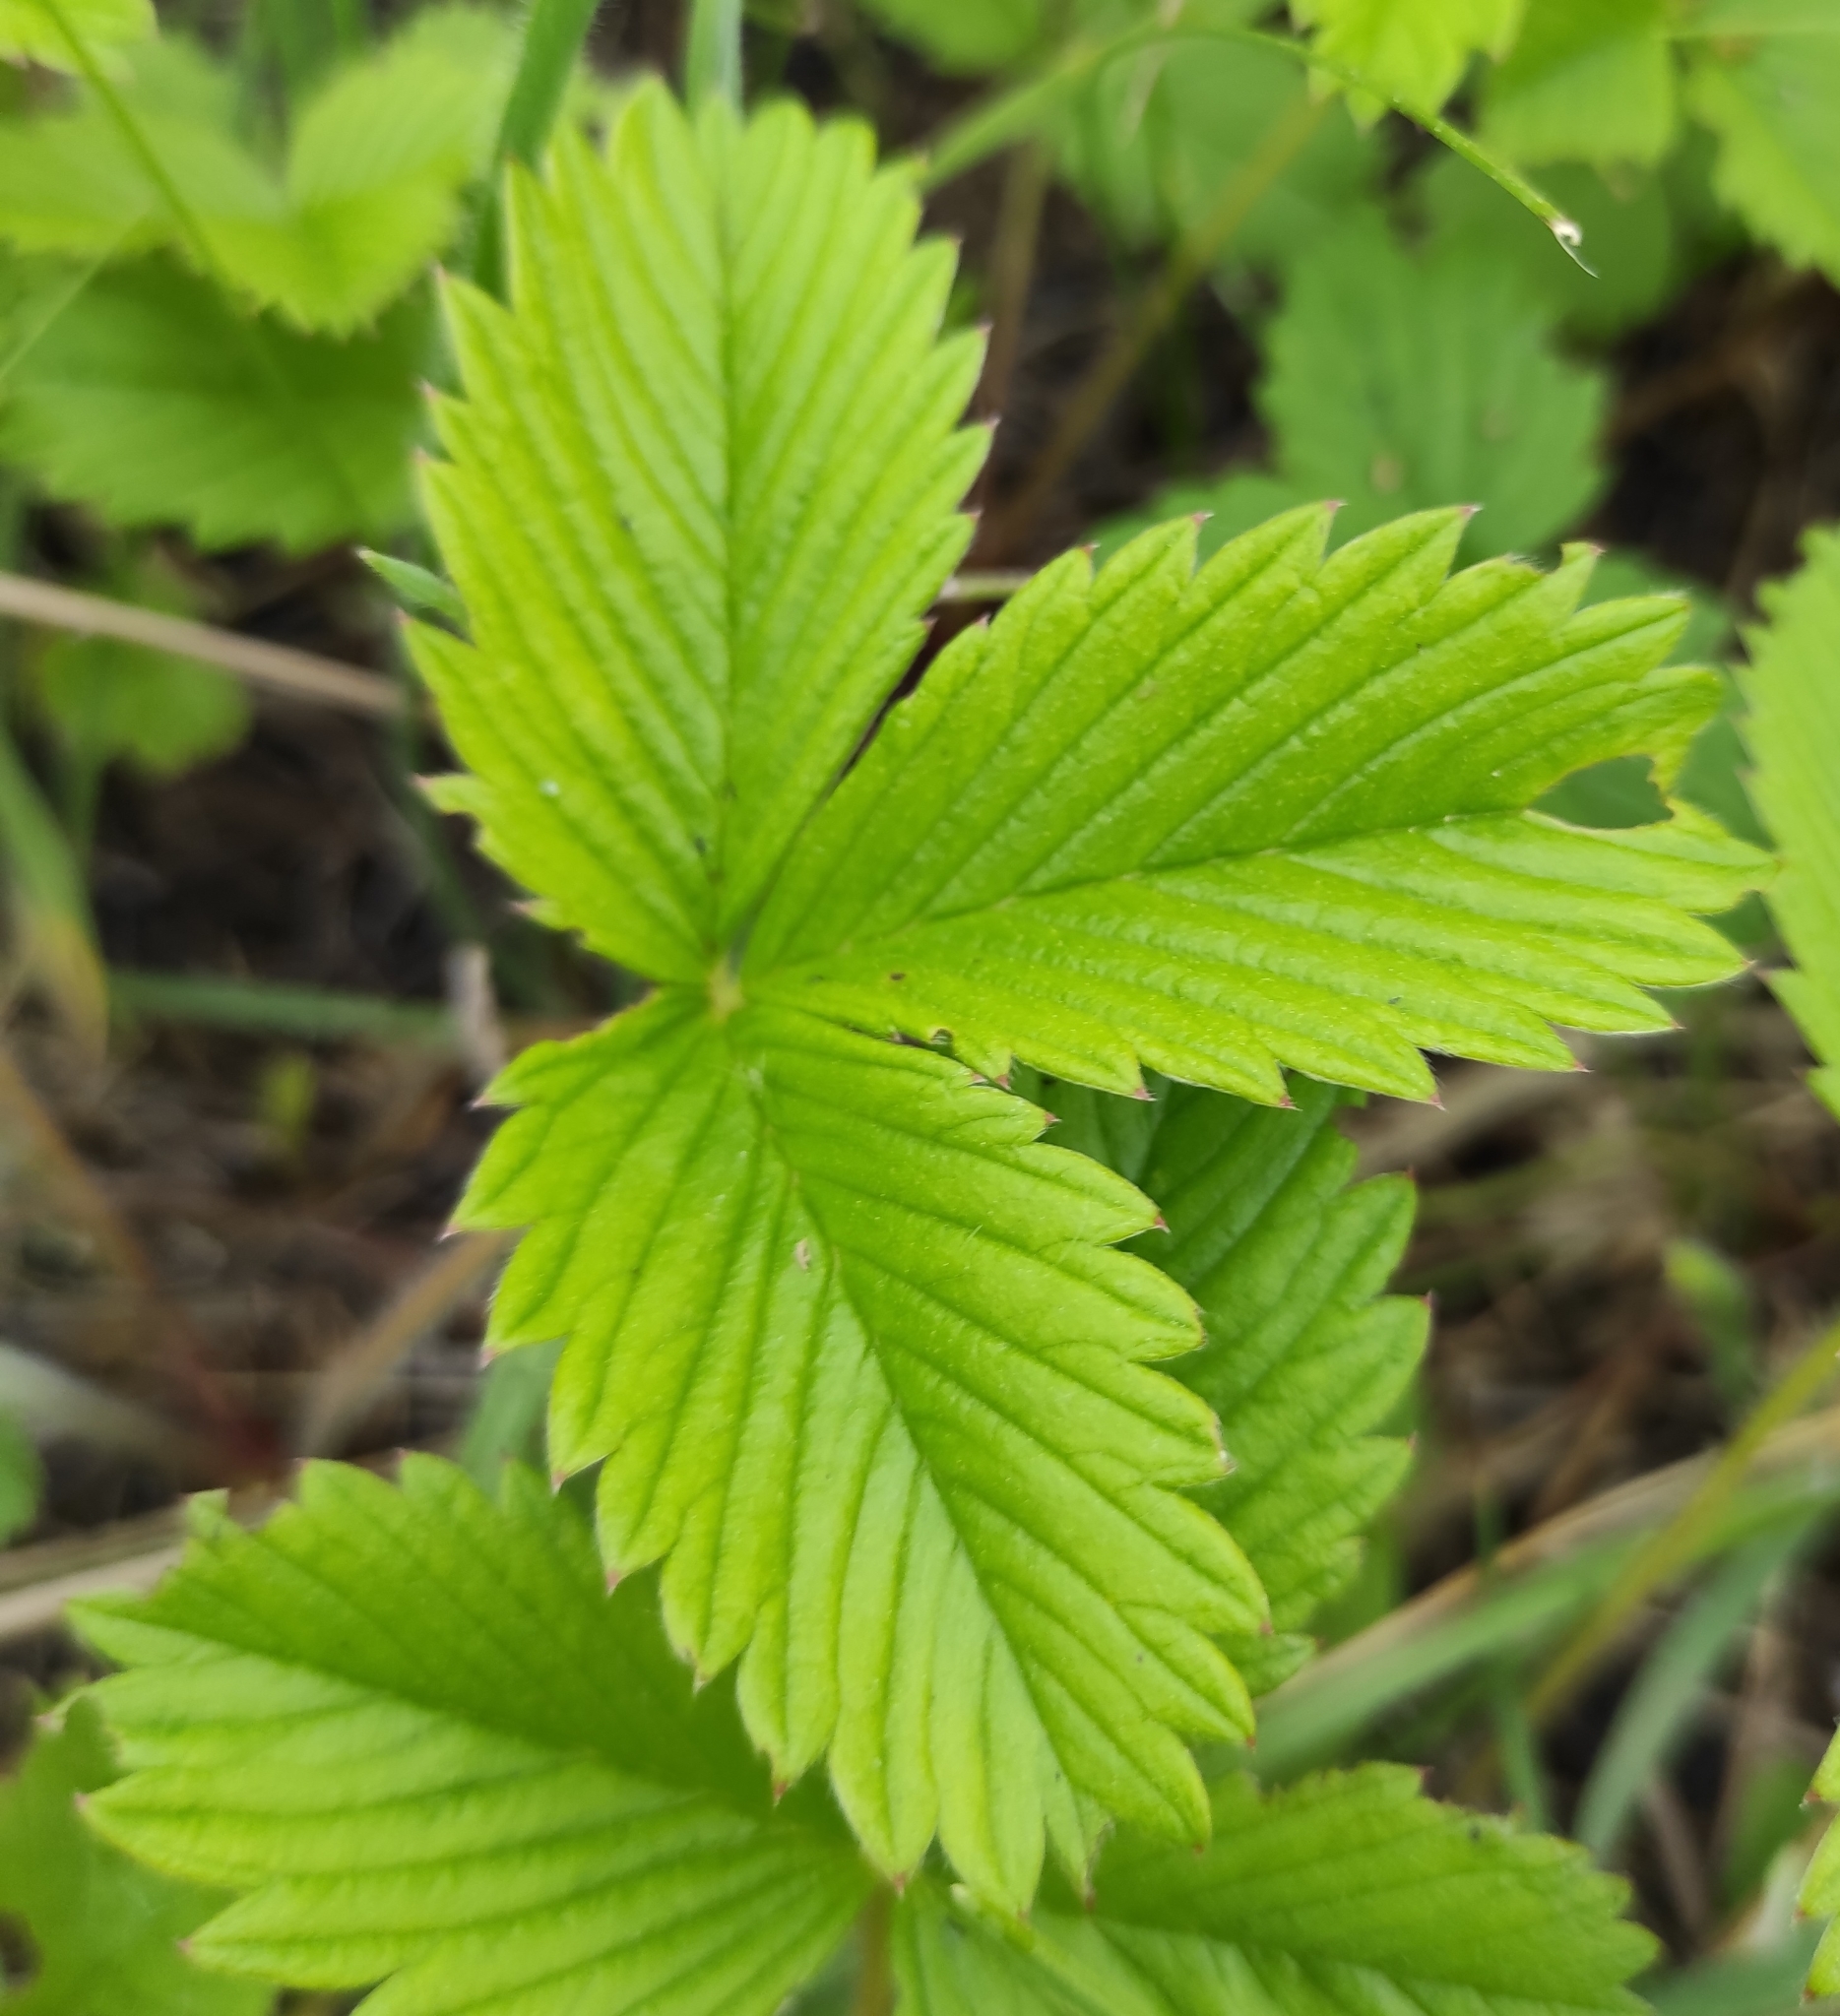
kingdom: Plantae
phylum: Tracheophyta
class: Magnoliopsida
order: Rosales
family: Rosaceae
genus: Fragaria
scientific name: Fragaria viridis
